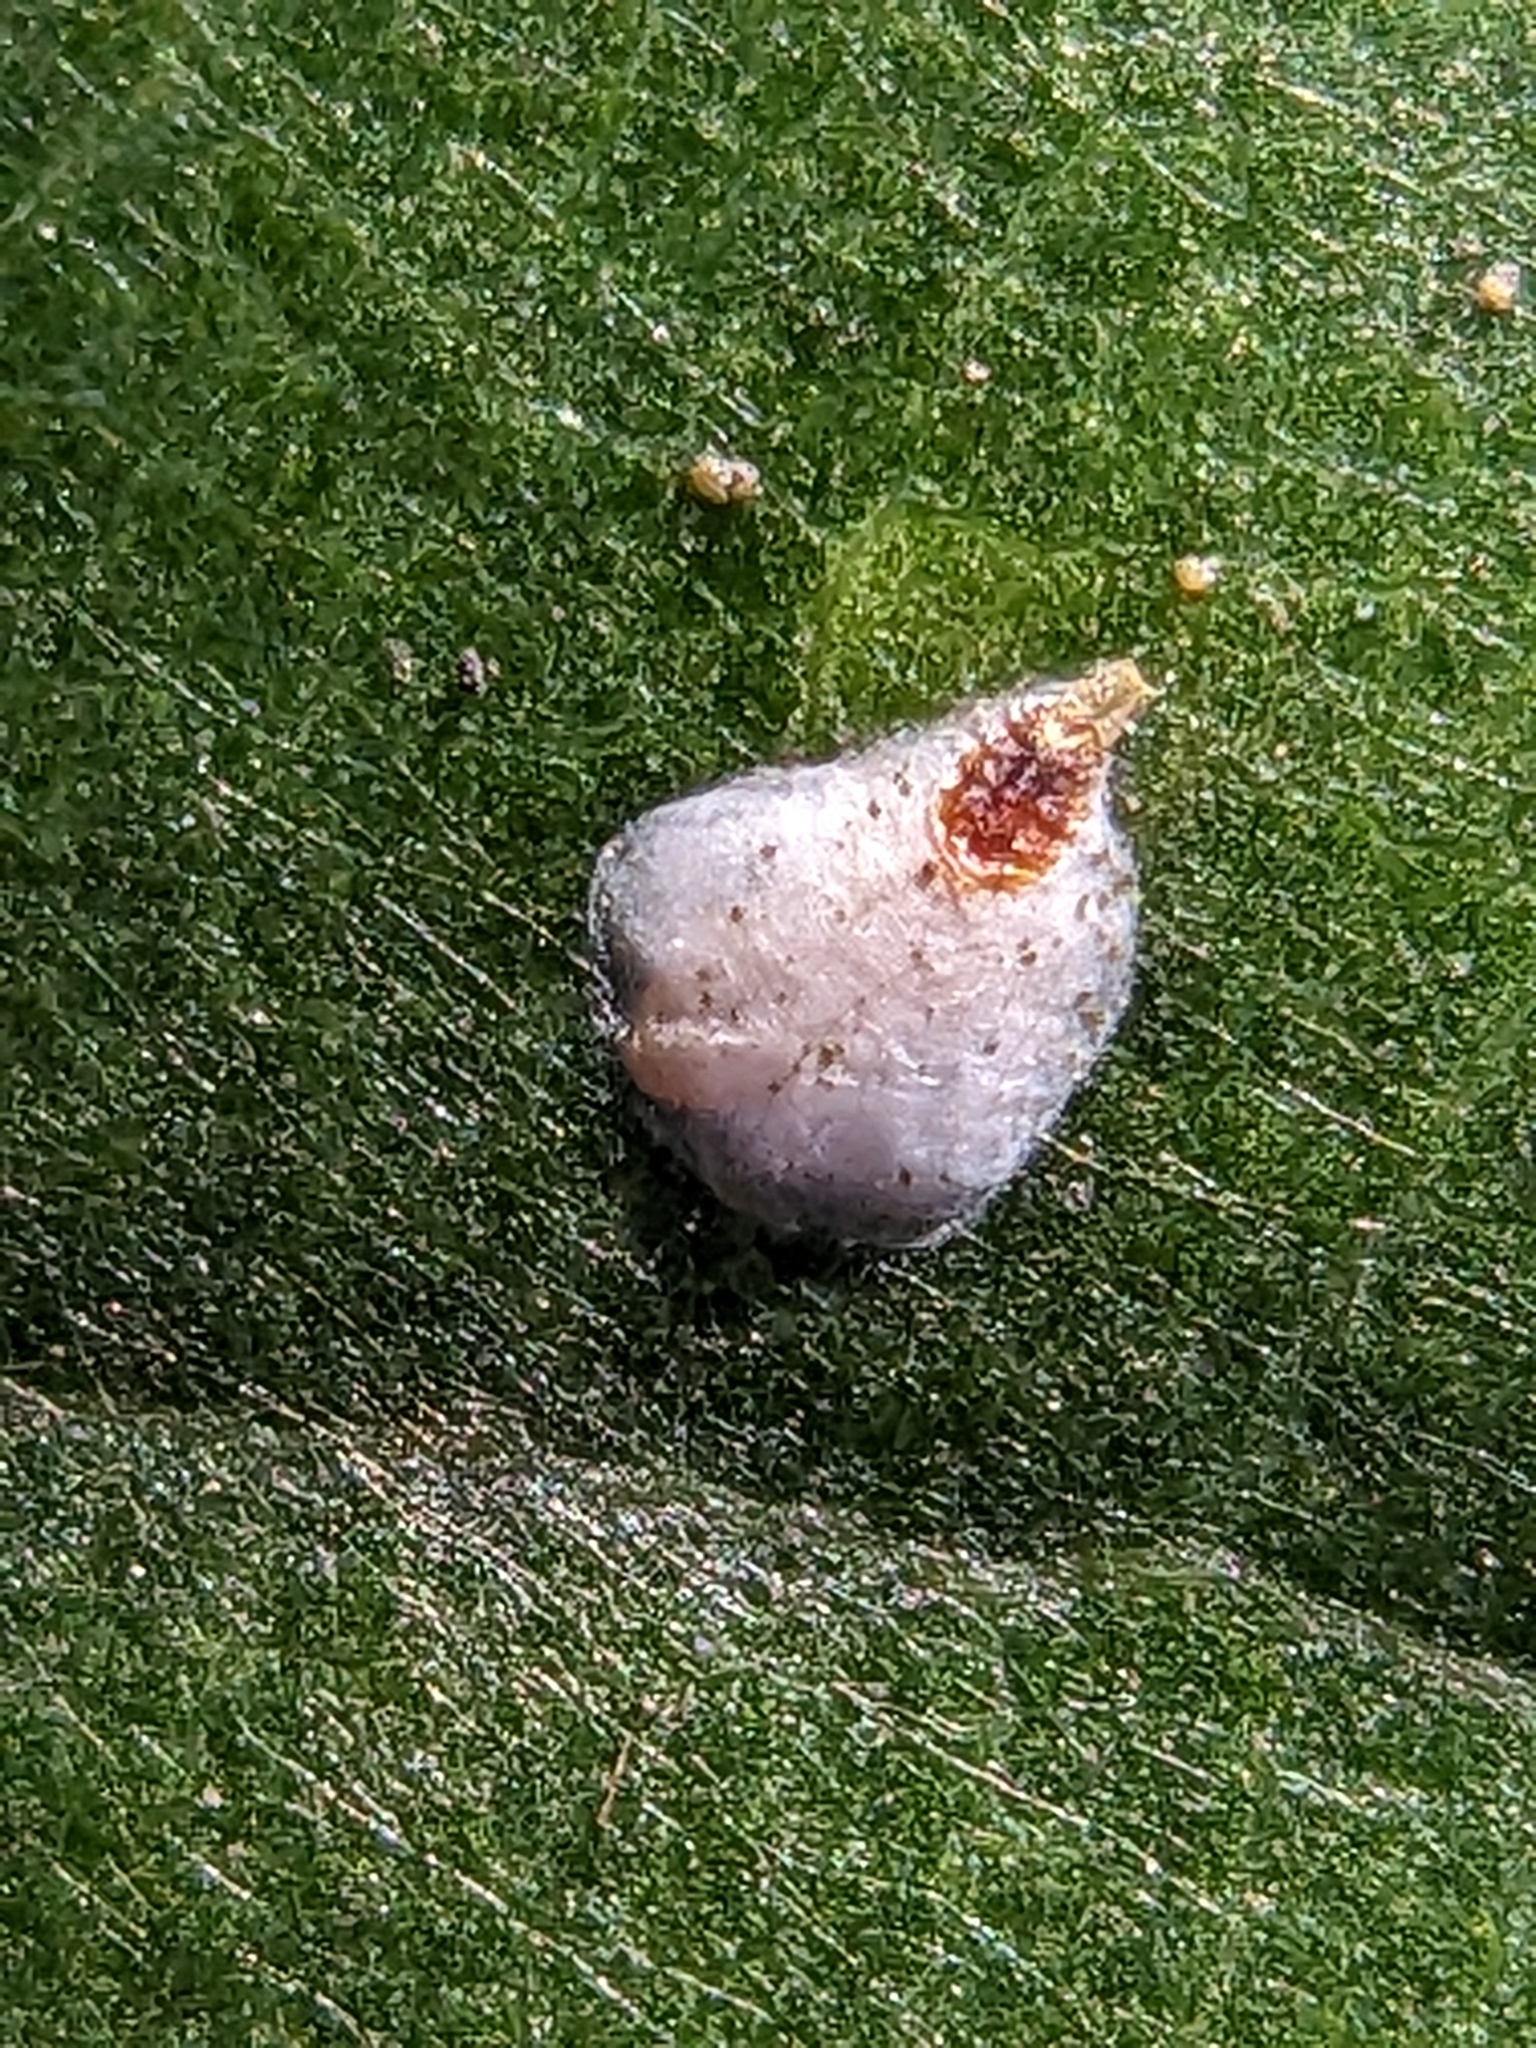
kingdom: Animalia
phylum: Arthropoda
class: Insecta
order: Hemiptera
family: Diaspididae
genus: Pseudaulacaspis
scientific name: Pseudaulacaspis cockerelli
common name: False oleander scale
